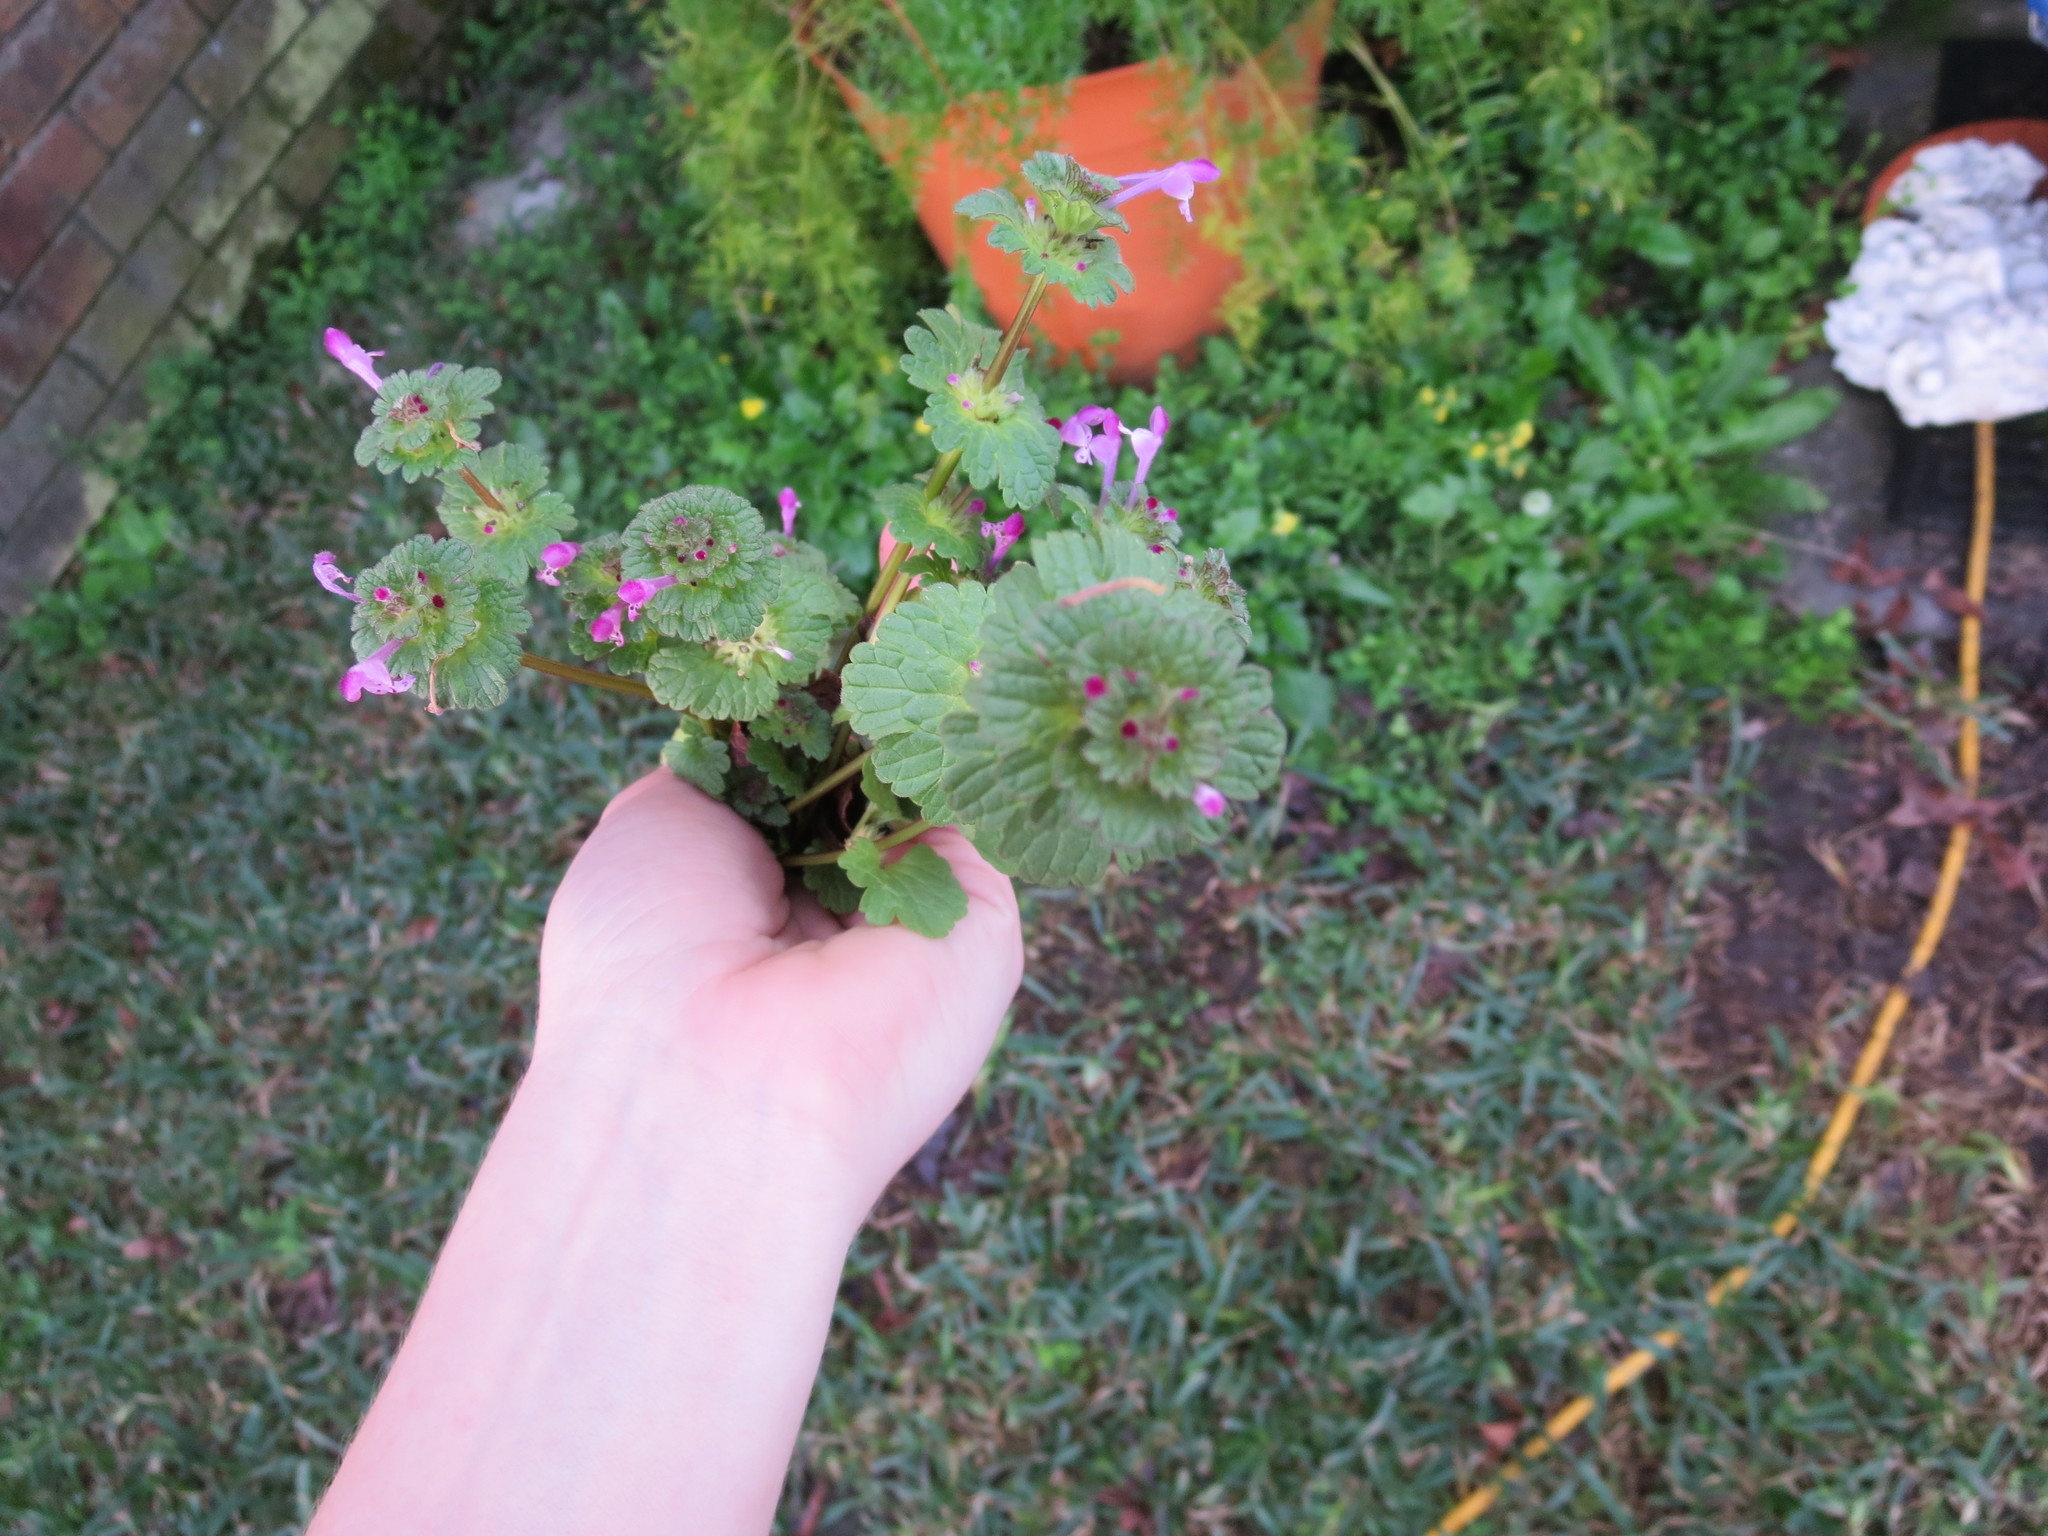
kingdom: Plantae
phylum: Tracheophyta
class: Magnoliopsida
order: Lamiales
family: Lamiaceae
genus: Lamium
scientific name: Lamium amplexicaule
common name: Henbit dead-nettle
